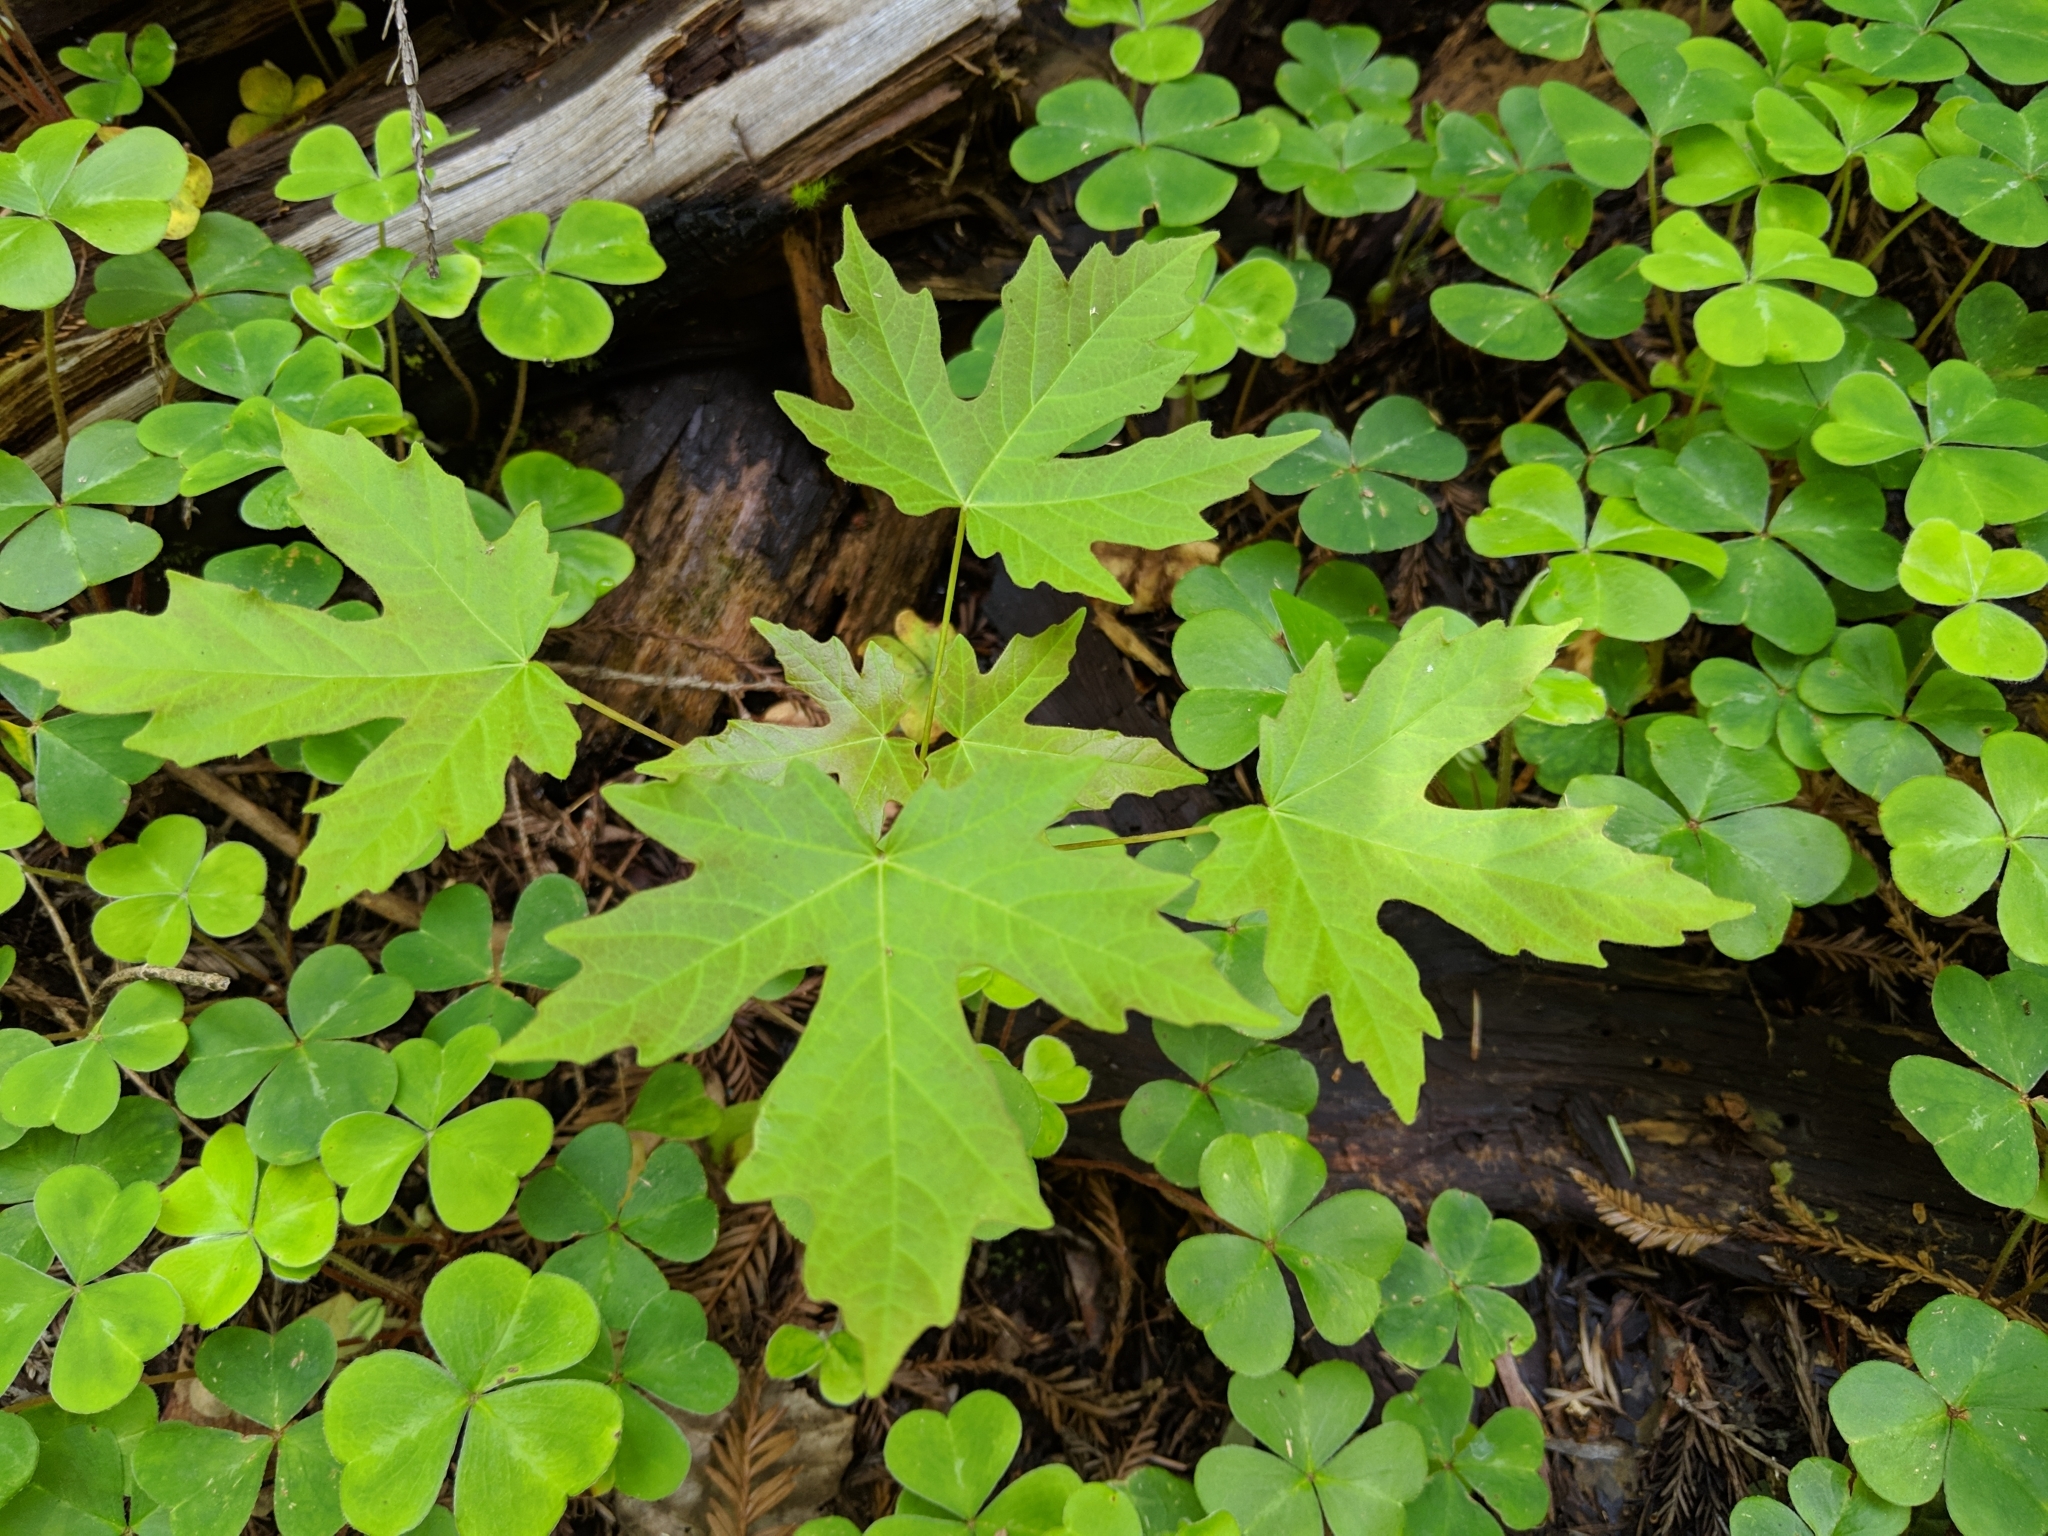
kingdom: Plantae
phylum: Tracheophyta
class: Magnoliopsida
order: Sapindales
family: Sapindaceae
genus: Acer
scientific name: Acer macrophyllum
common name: Oregon maple
